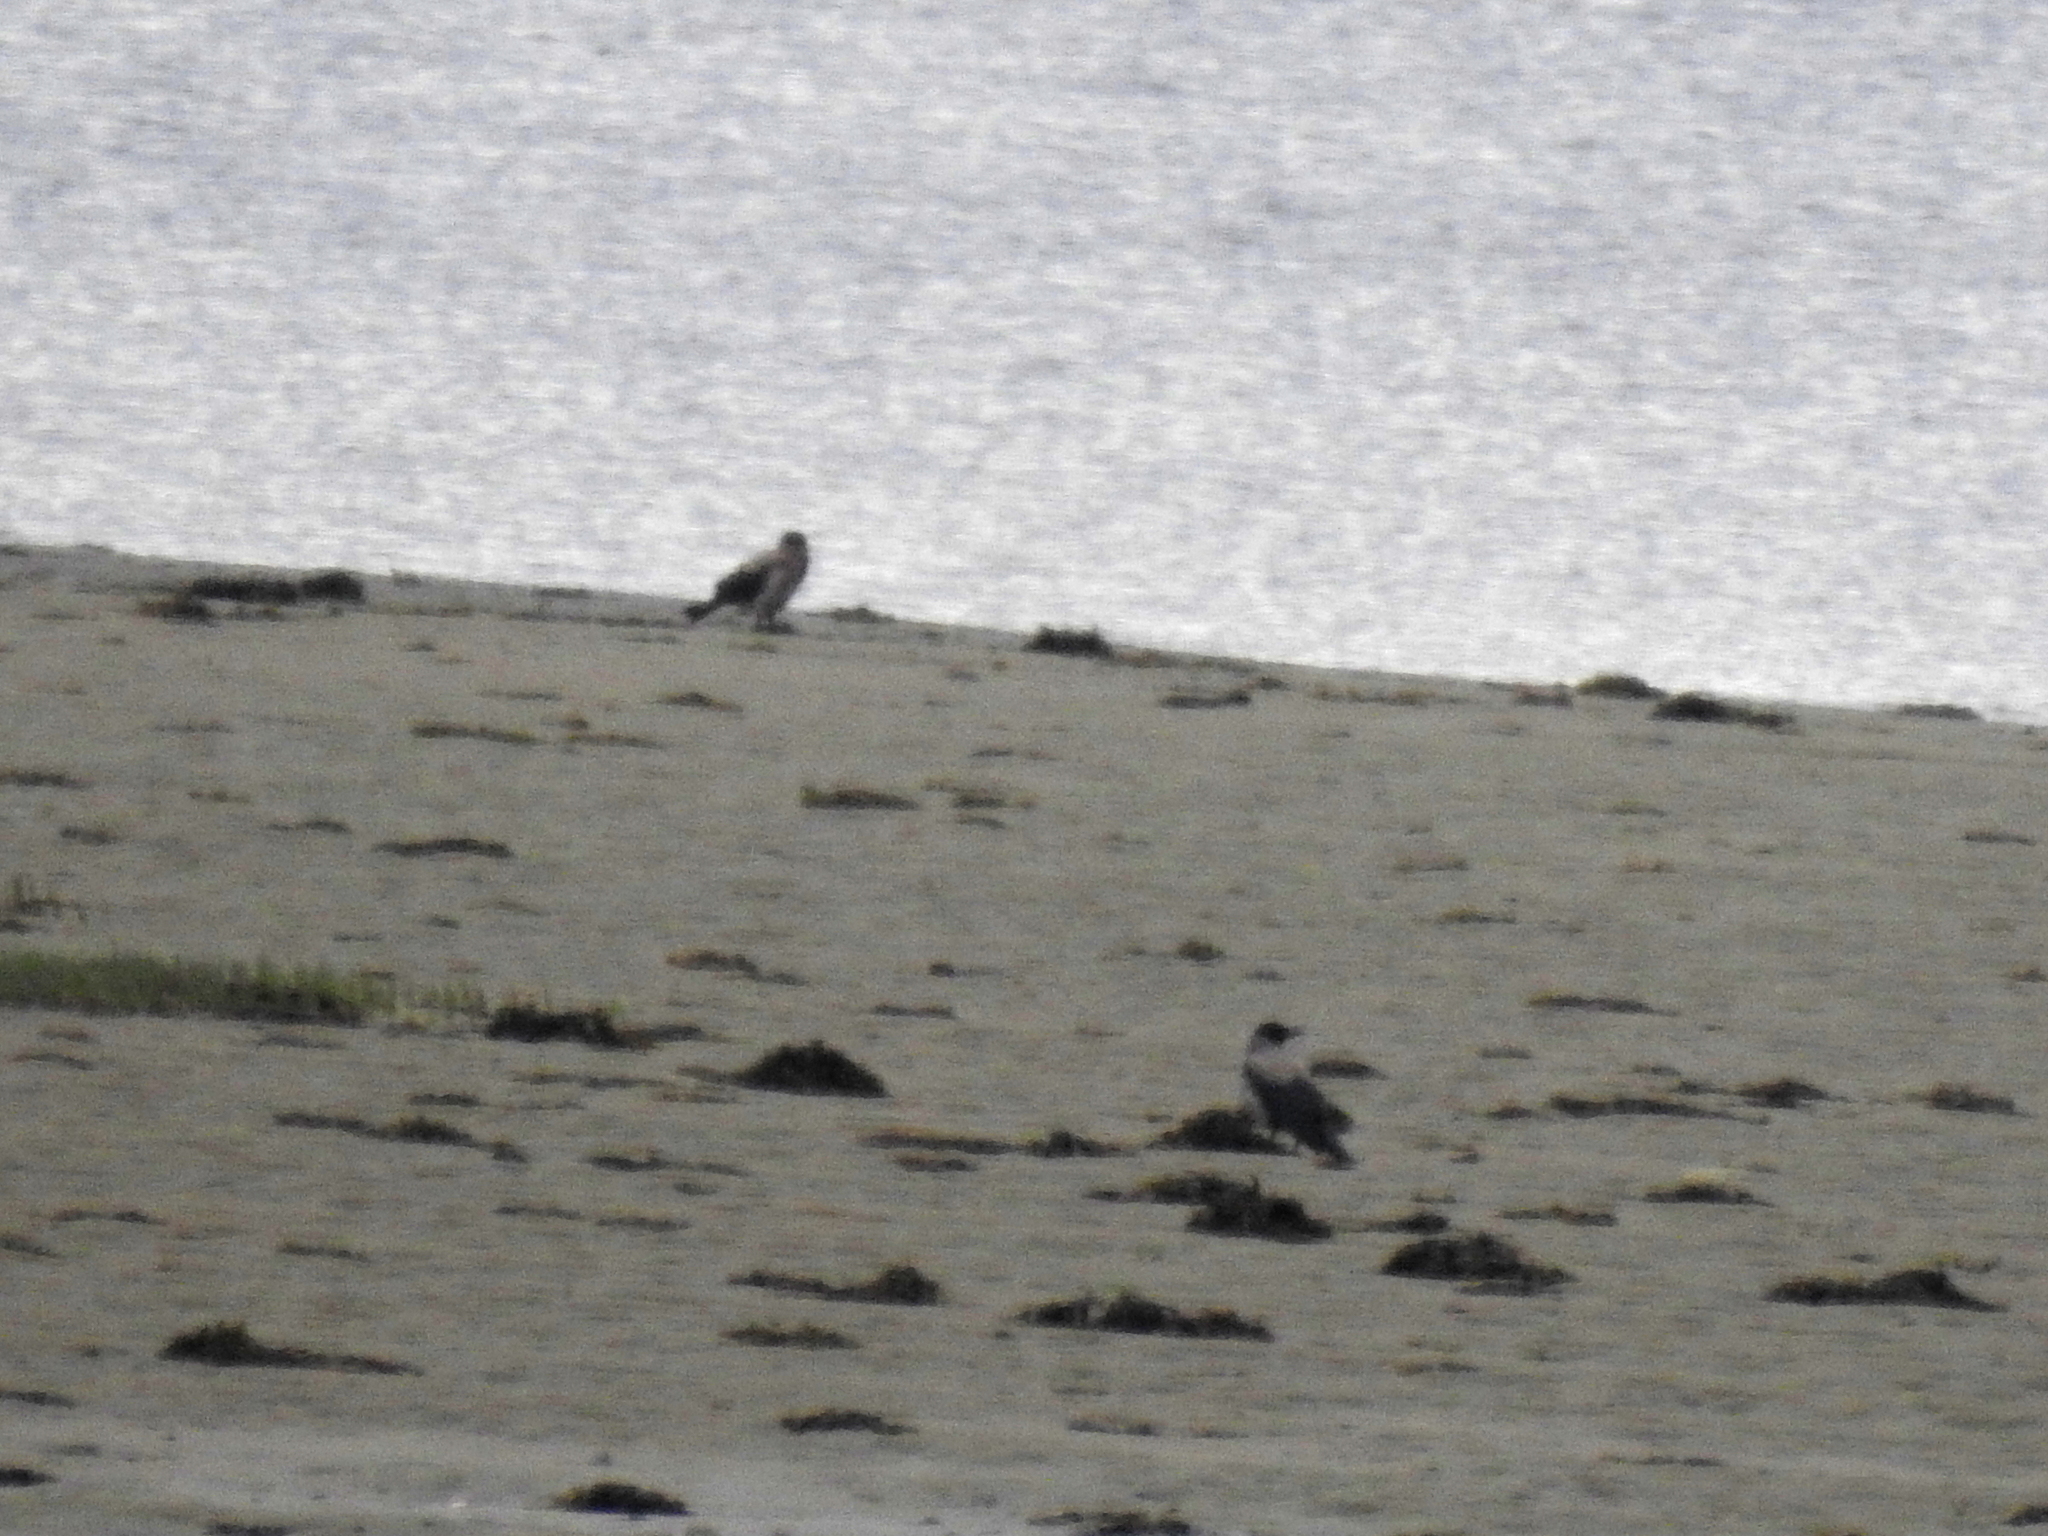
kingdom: Animalia
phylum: Chordata
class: Aves
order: Passeriformes
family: Corvidae
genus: Corvus
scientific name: Corvus cornix
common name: Hooded crow
